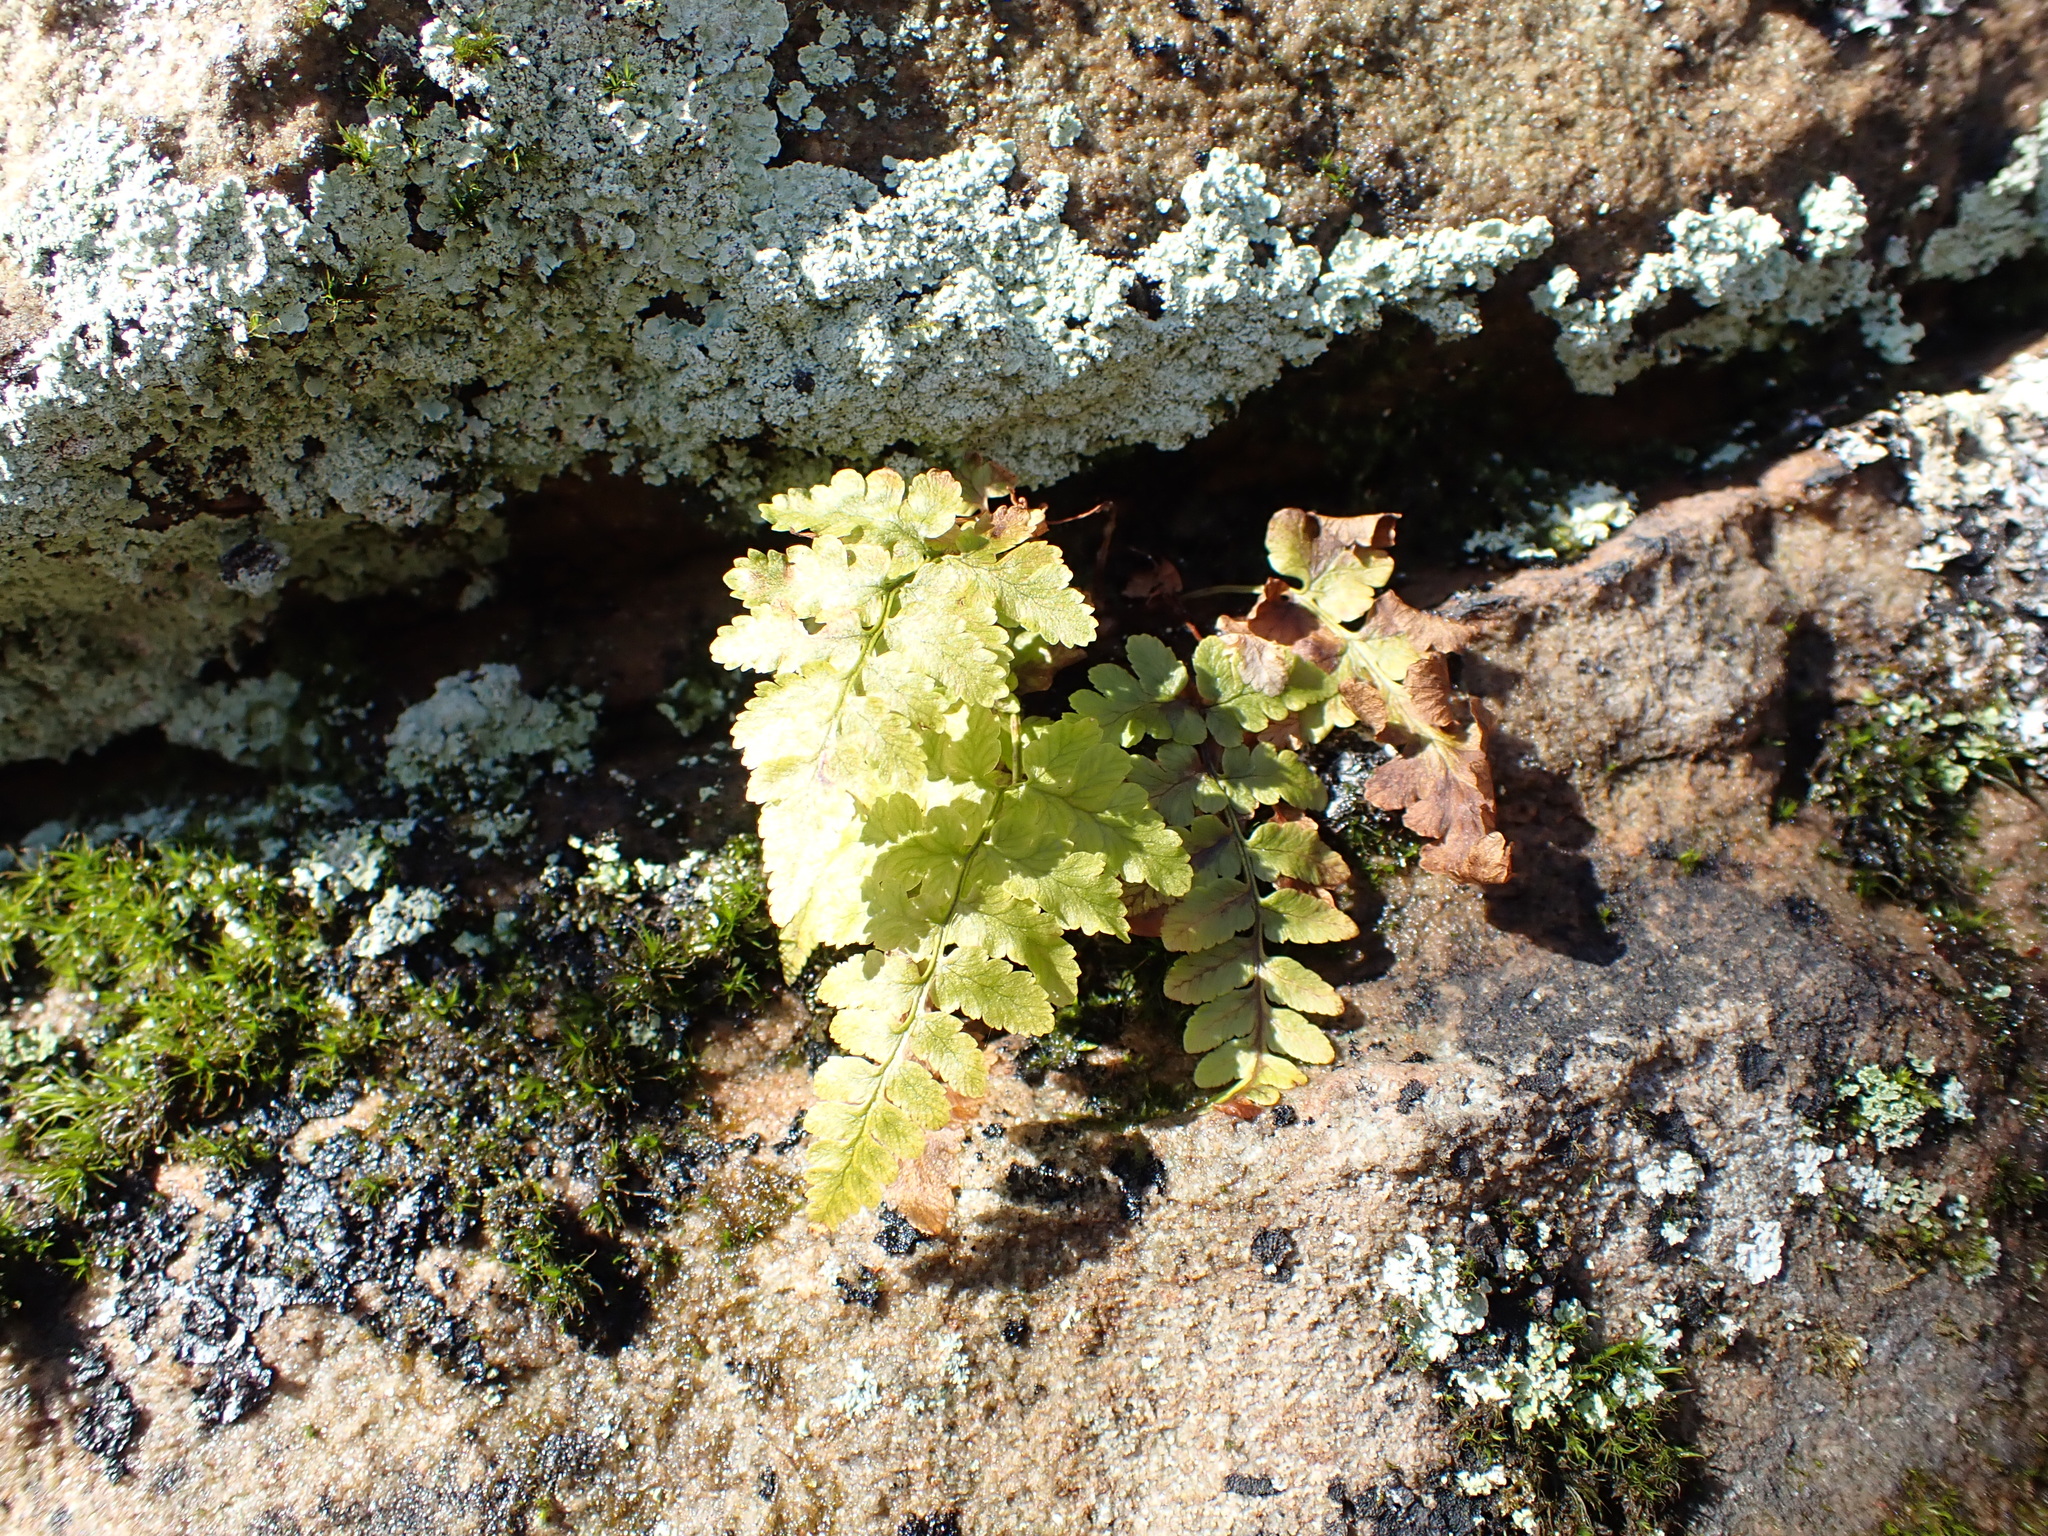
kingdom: Plantae
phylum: Tracheophyta
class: Polypodiopsida
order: Polypodiales
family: Dennstaedtiaceae
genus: Sitobolium
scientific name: Sitobolium punctilobum
